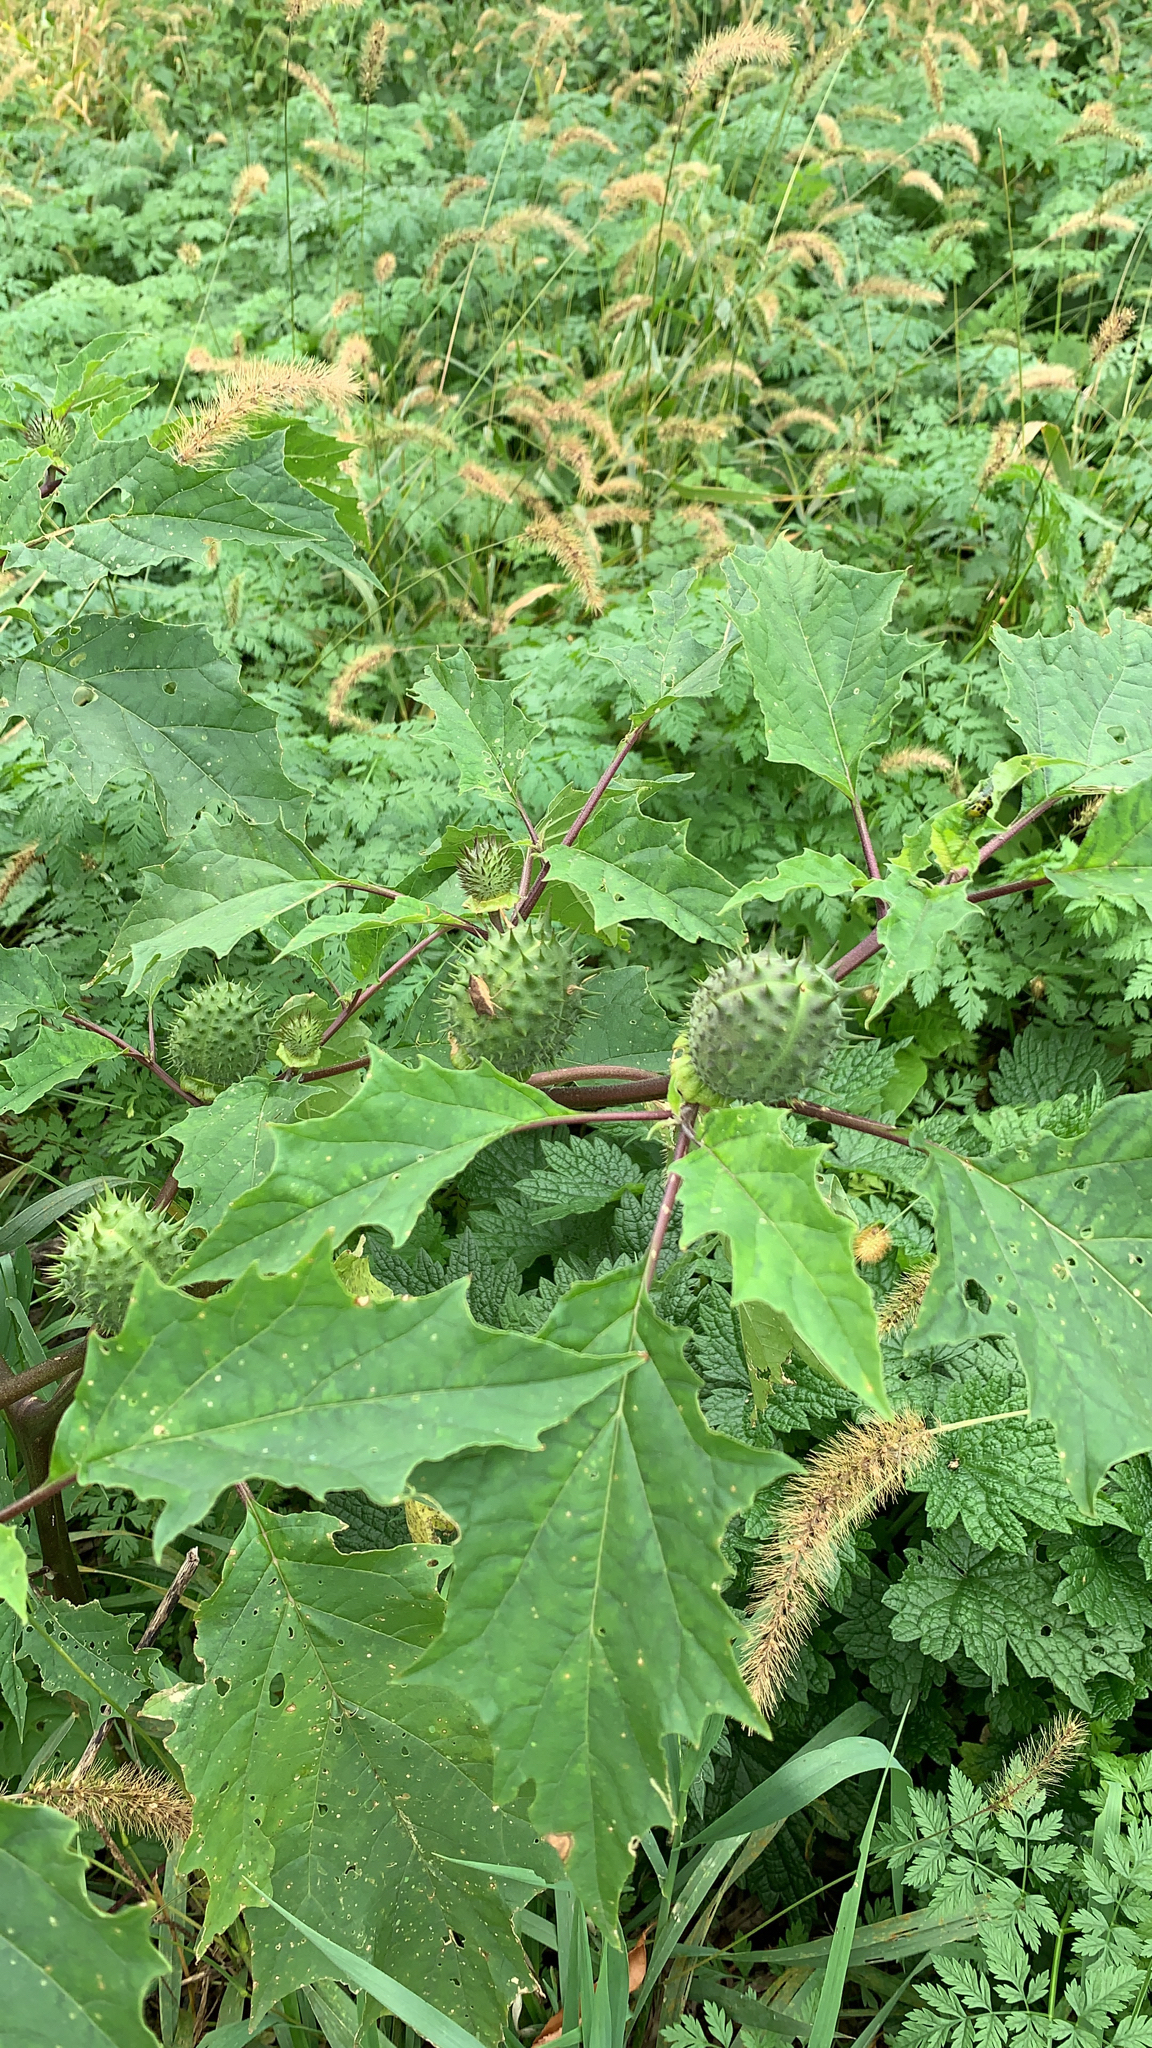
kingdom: Plantae
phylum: Tracheophyta
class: Magnoliopsida
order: Solanales
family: Solanaceae
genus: Datura
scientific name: Datura stramonium
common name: Thorn-apple
